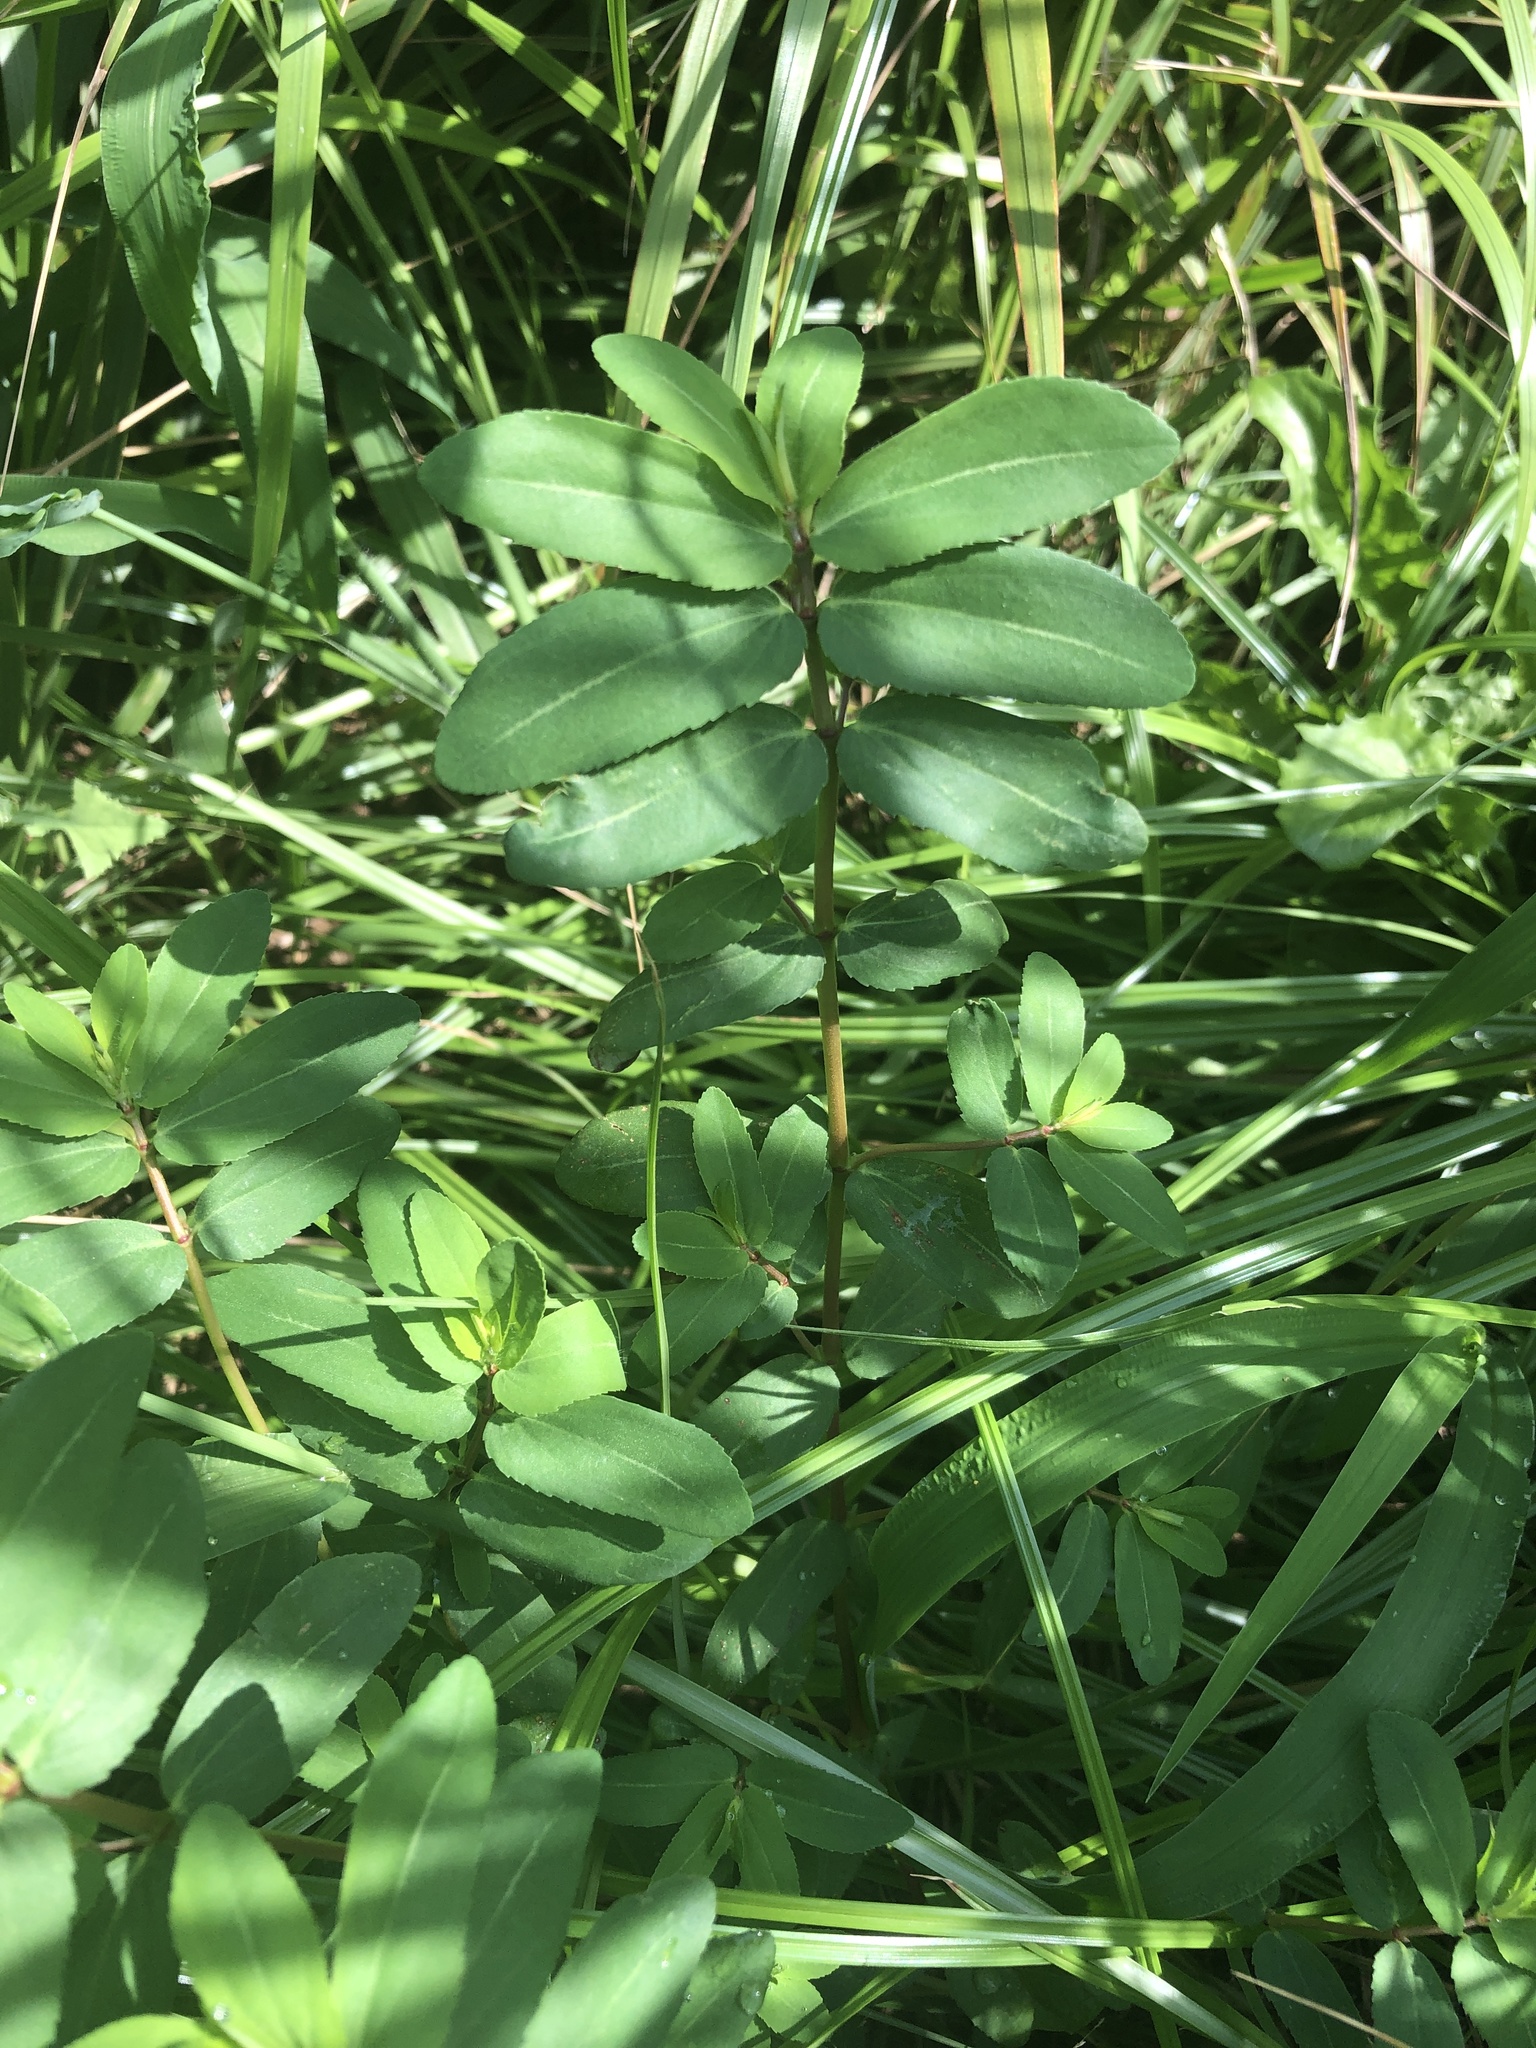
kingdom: Plantae
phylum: Tracheophyta
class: Magnoliopsida
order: Malpighiales
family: Euphorbiaceae
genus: Euphorbia
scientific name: Euphorbia nutans
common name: Eyebane
